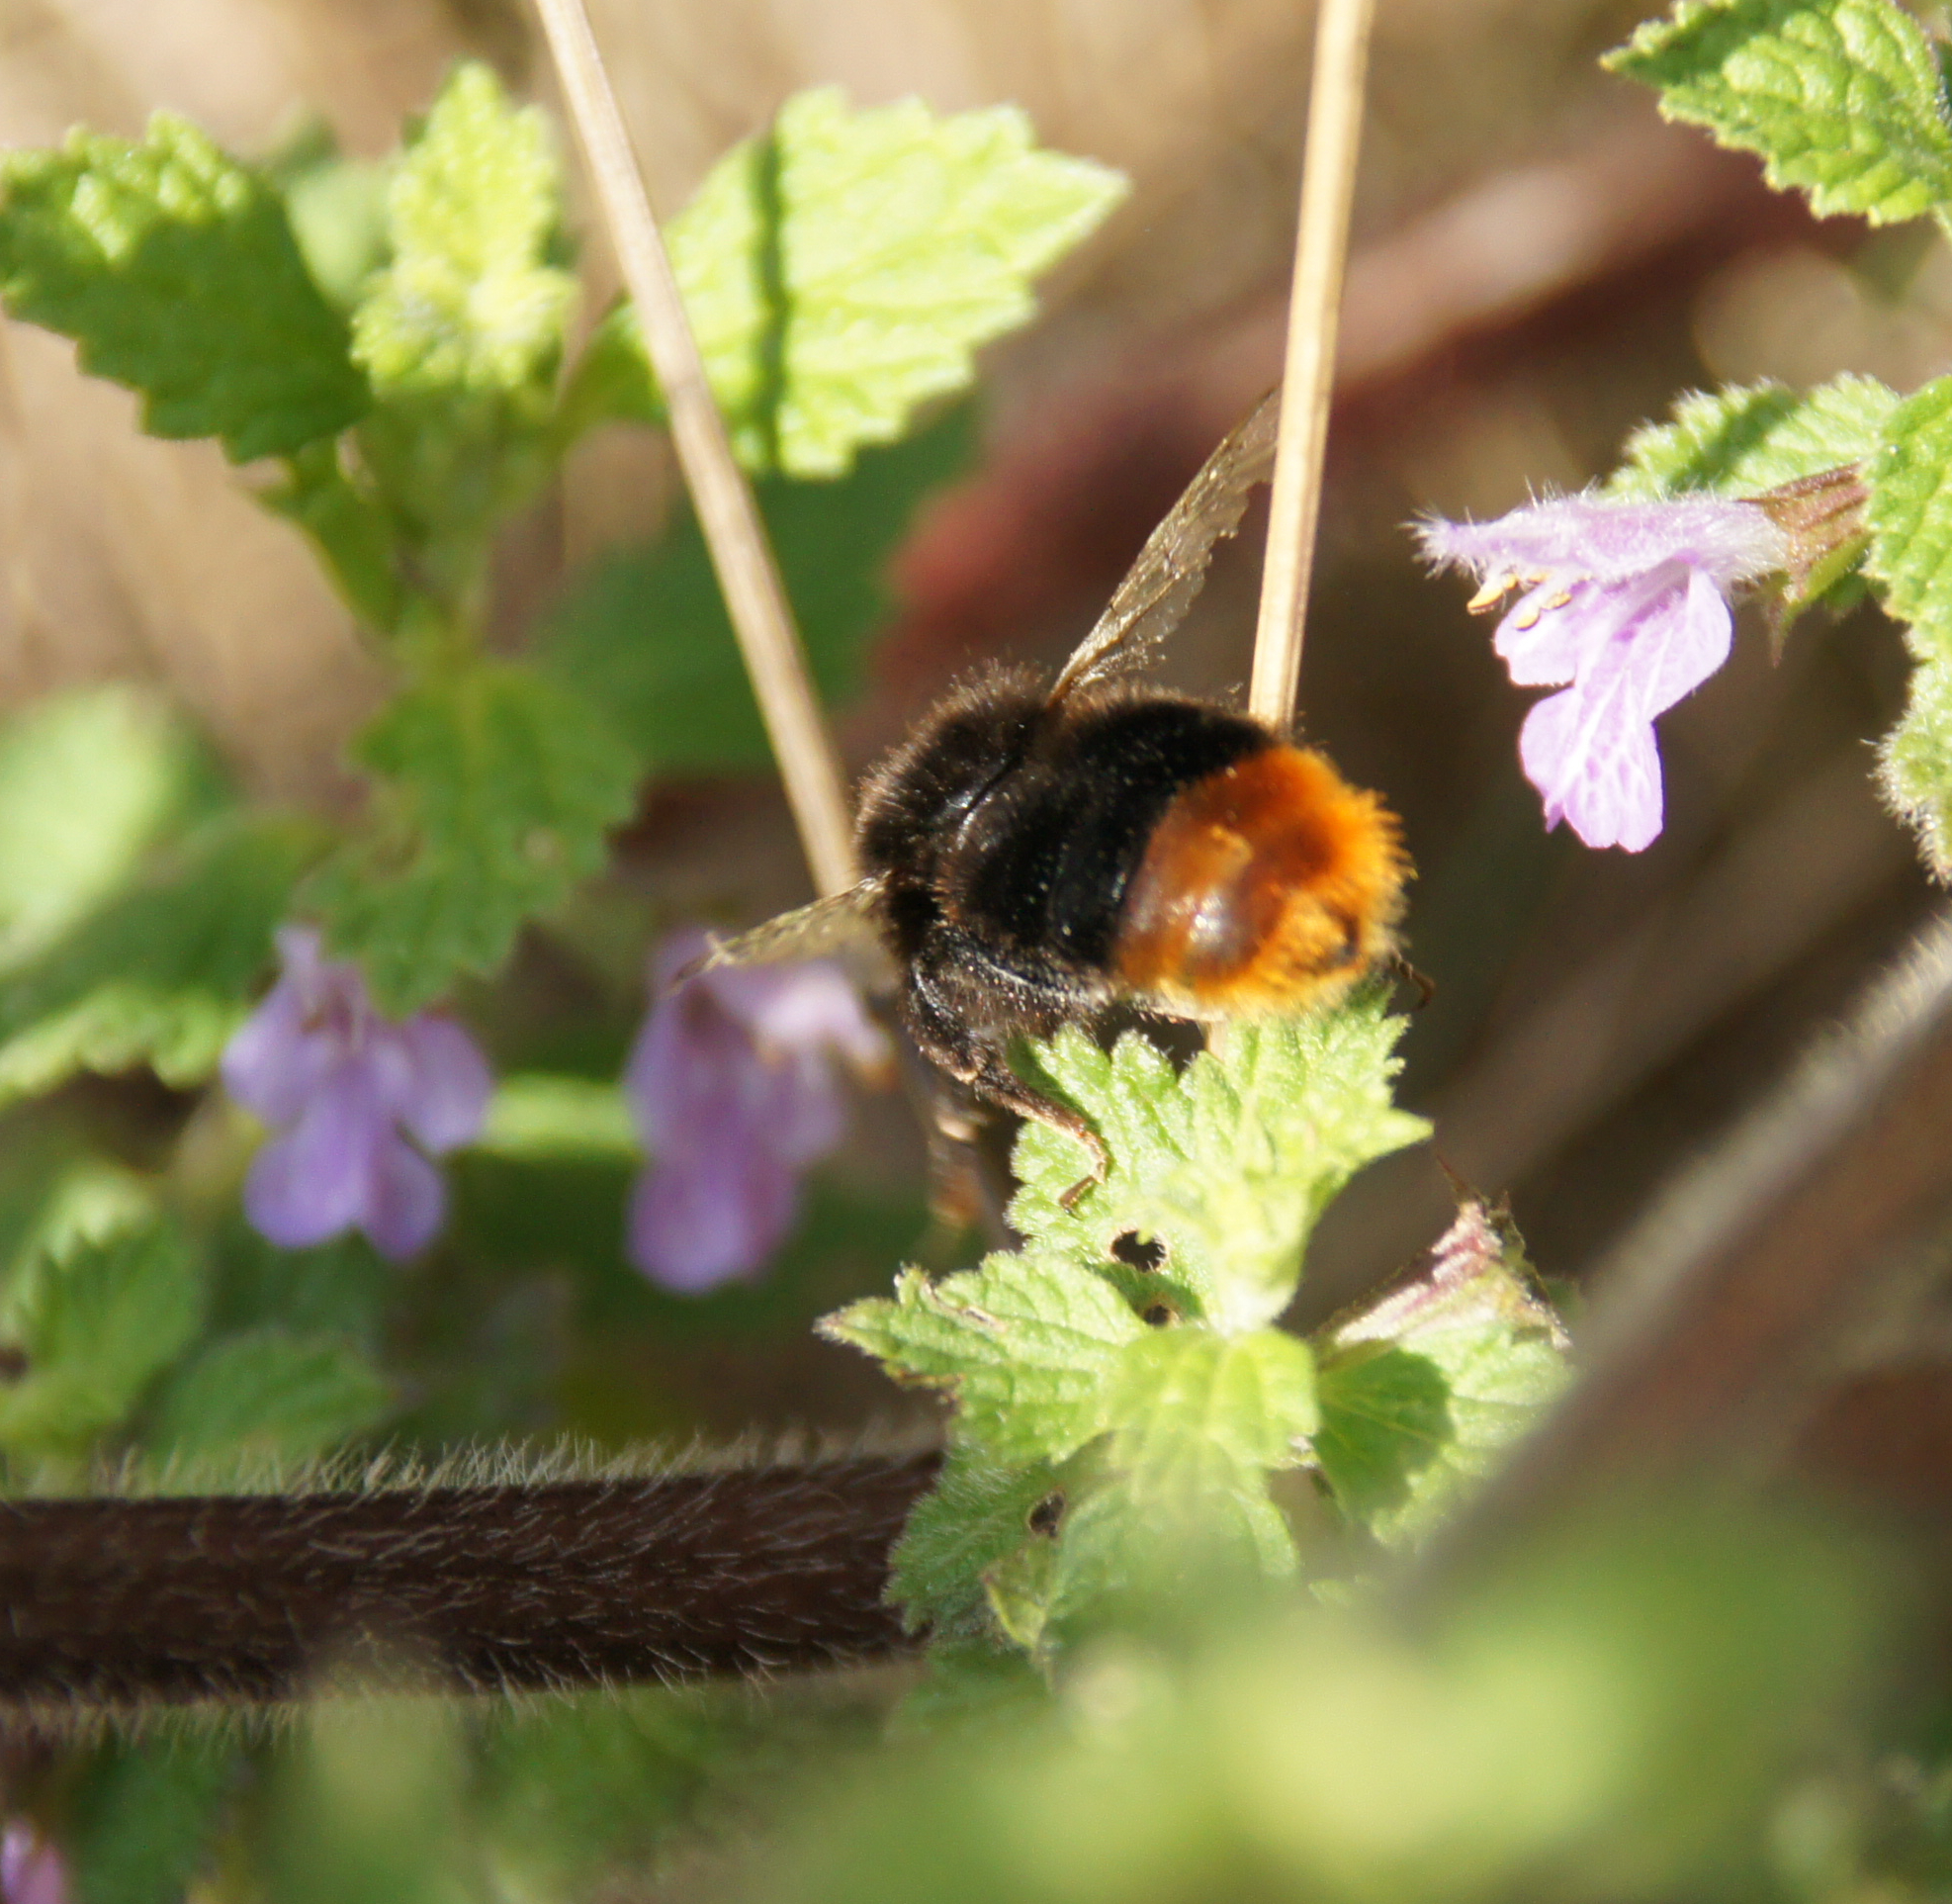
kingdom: Animalia
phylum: Arthropoda
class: Insecta
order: Hymenoptera
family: Apidae
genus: Bombus
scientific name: Bombus ruderarius
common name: Red-shanked carder-bee
